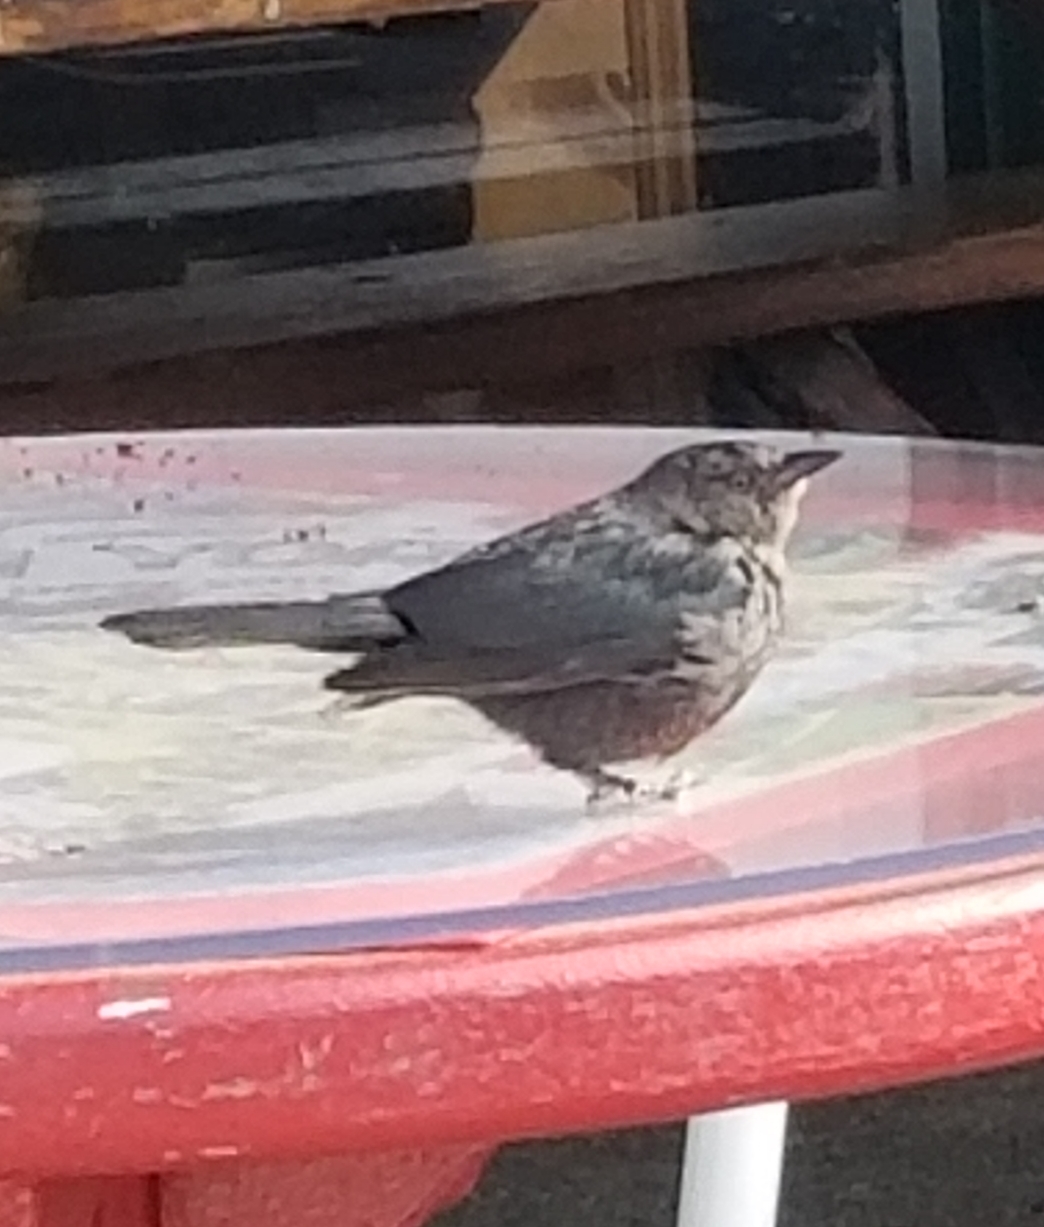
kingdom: Animalia
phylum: Chordata
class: Aves
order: Passeriformes
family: Icteridae
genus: Euphagus
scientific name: Euphagus cyanocephalus
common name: Brewer's blackbird
